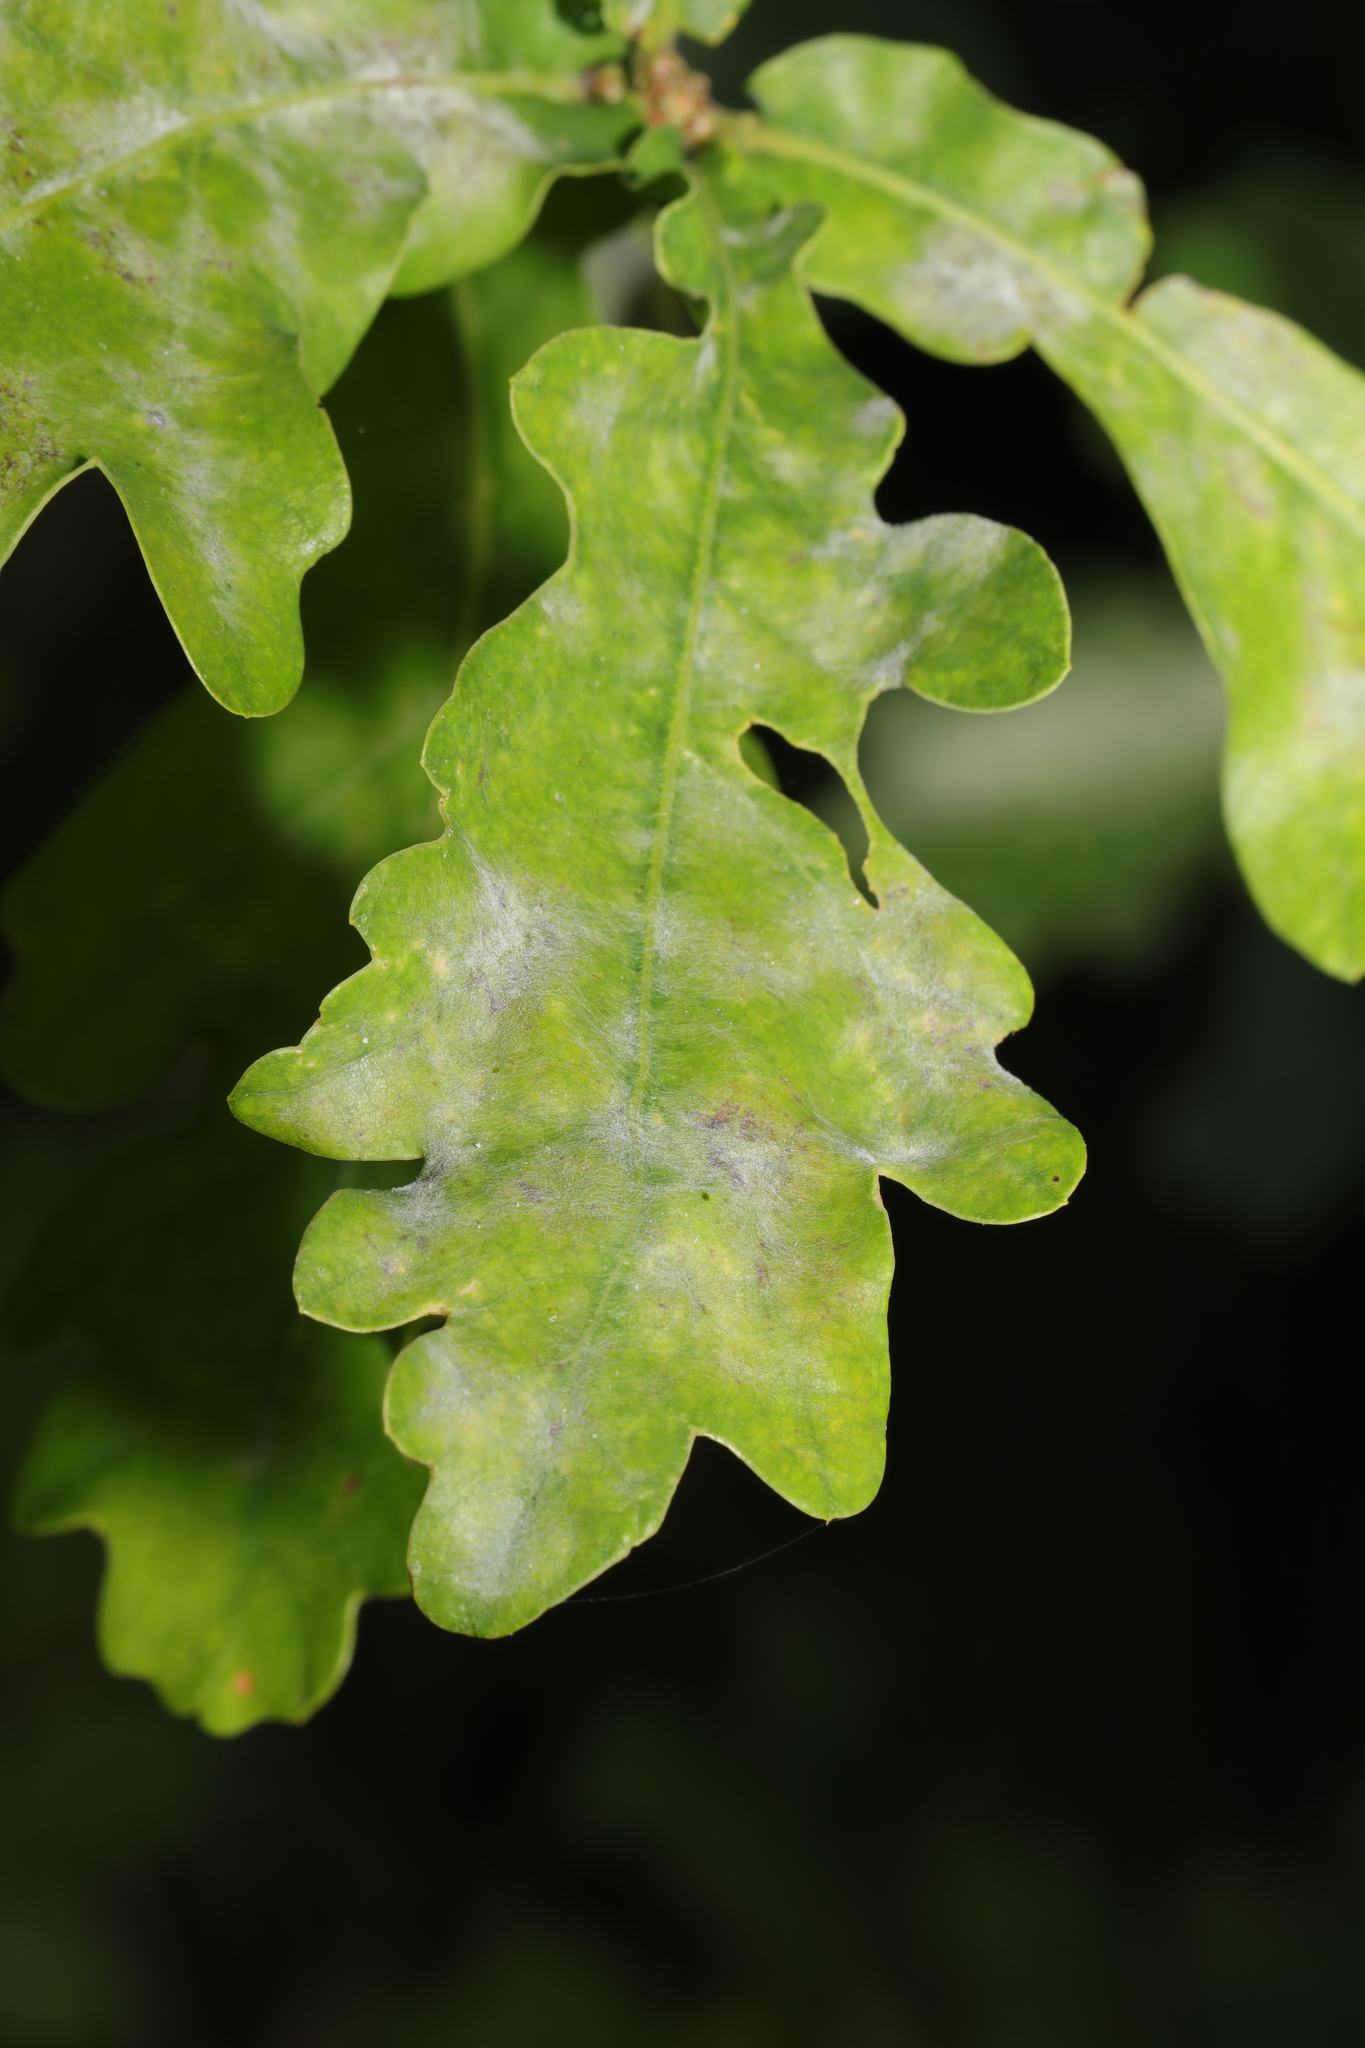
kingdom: Fungi
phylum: Ascomycota
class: Leotiomycetes
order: Helotiales
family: Erysiphaceae
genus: Erysiphe
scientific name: Erysiphe alphitoides
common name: Oak mildew
